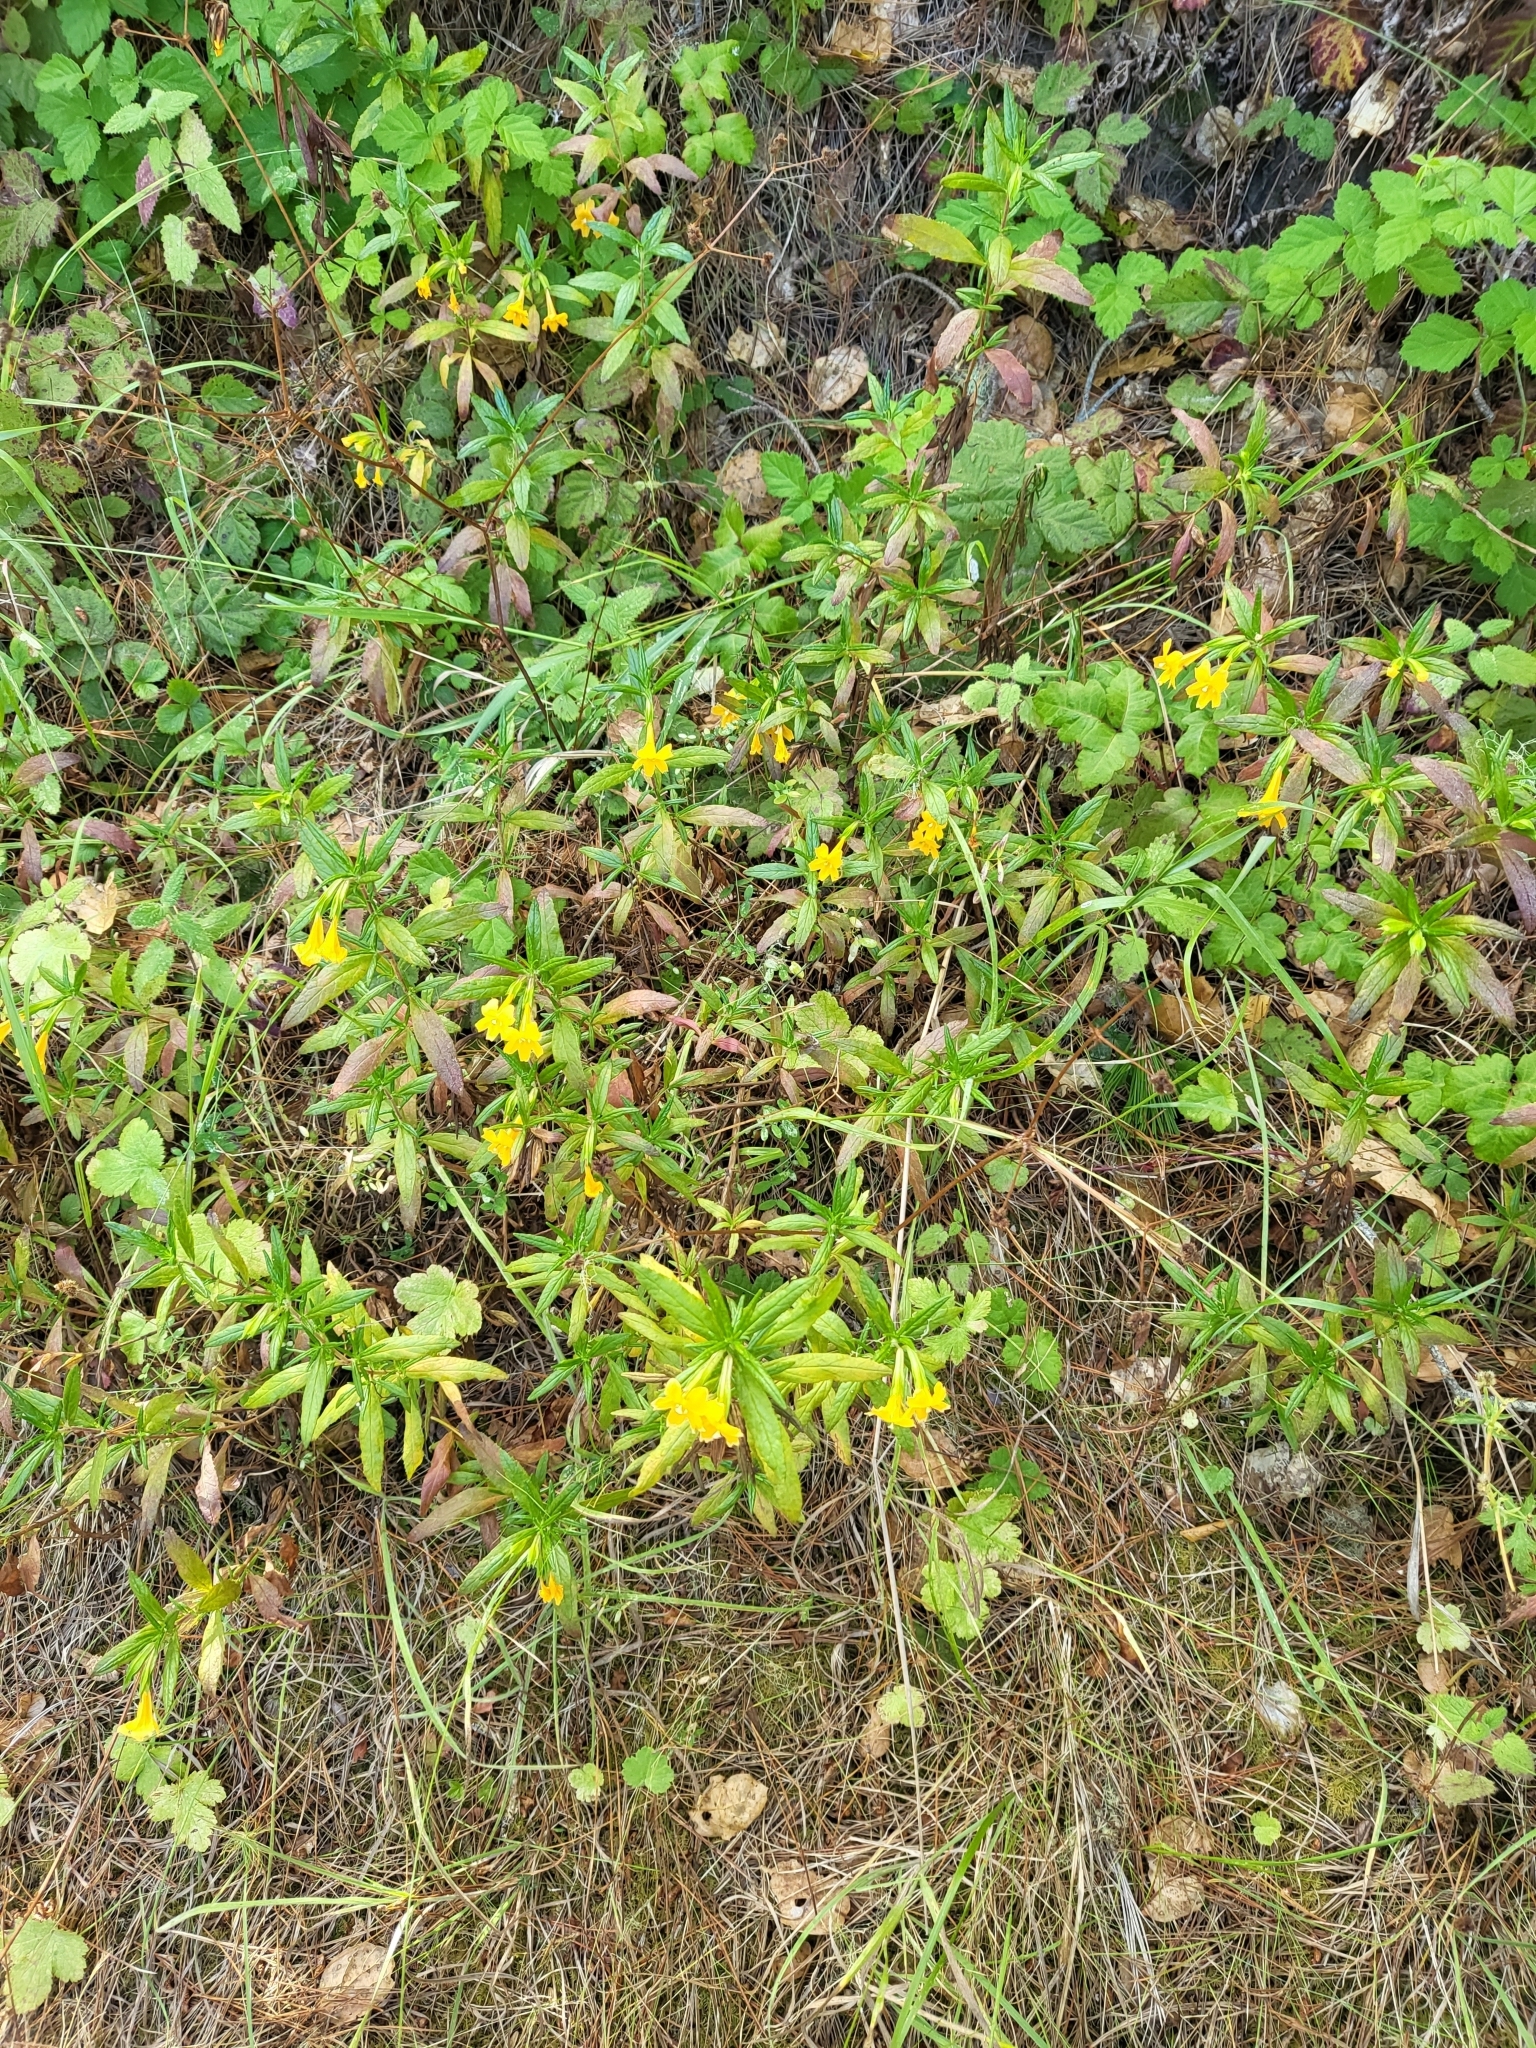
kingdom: Plantae
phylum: Tracheophyta
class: Magnoliopsida
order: Lamiales
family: Phrymaceae
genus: Diplacus
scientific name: Diplacus aurantiacus
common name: Bush monkey-flower
